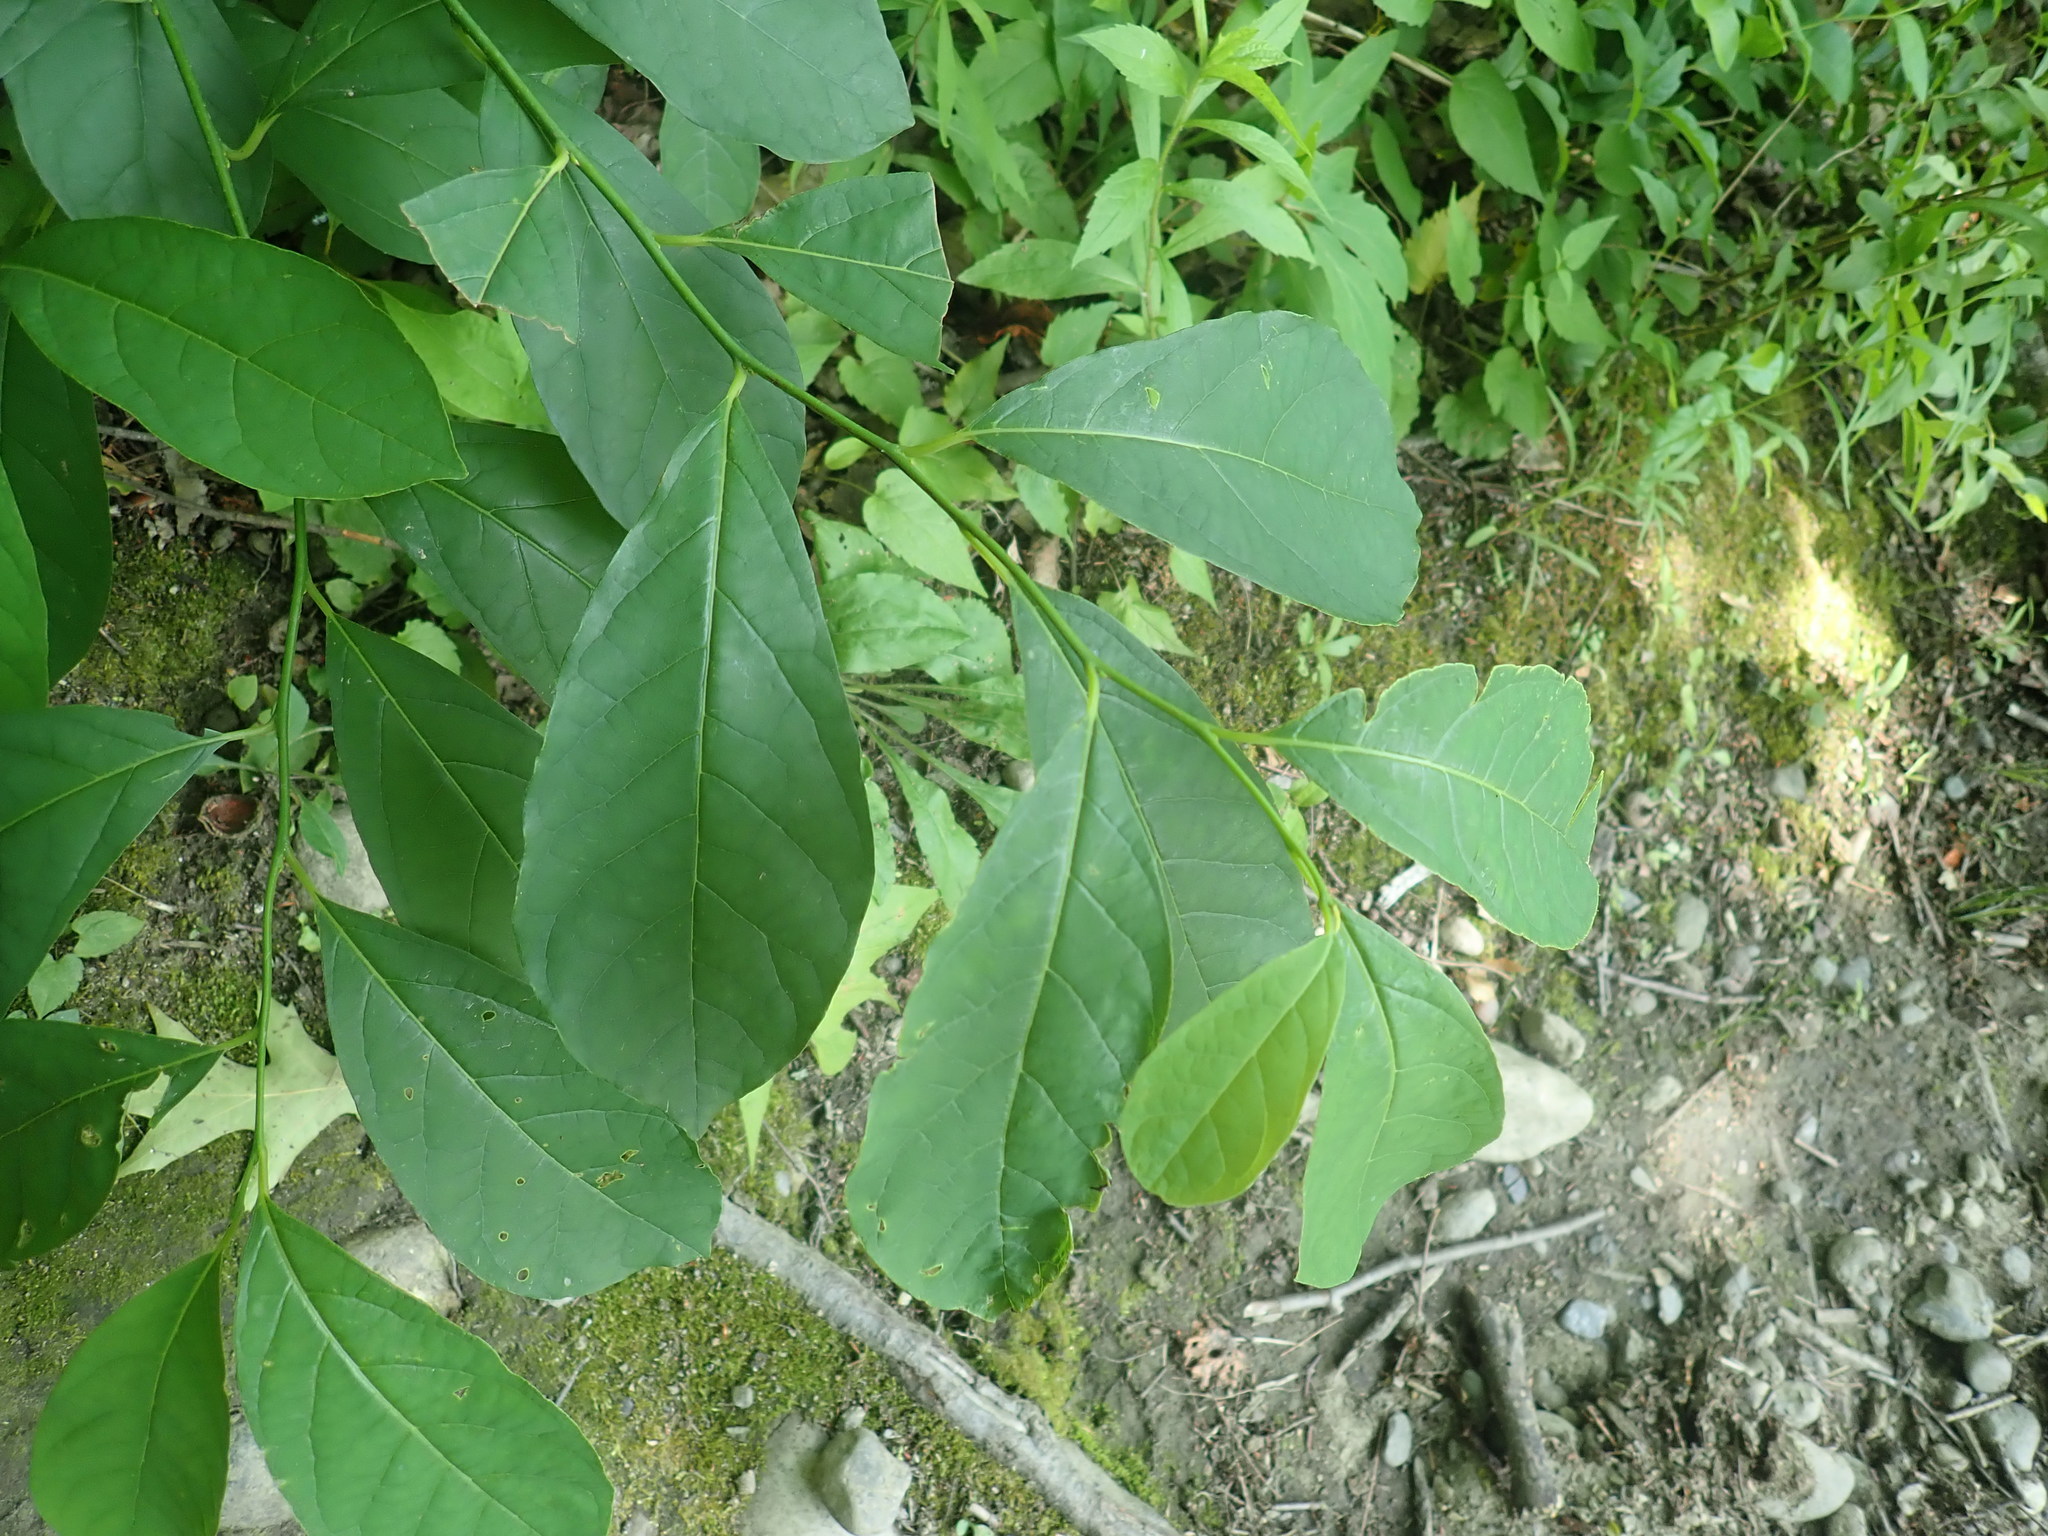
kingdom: Plantae
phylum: Tracheophyta
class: Magnoliopsida
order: Laurales
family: Lauraceae
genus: Lindera
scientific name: Lindera benzoin
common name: Spicebush
